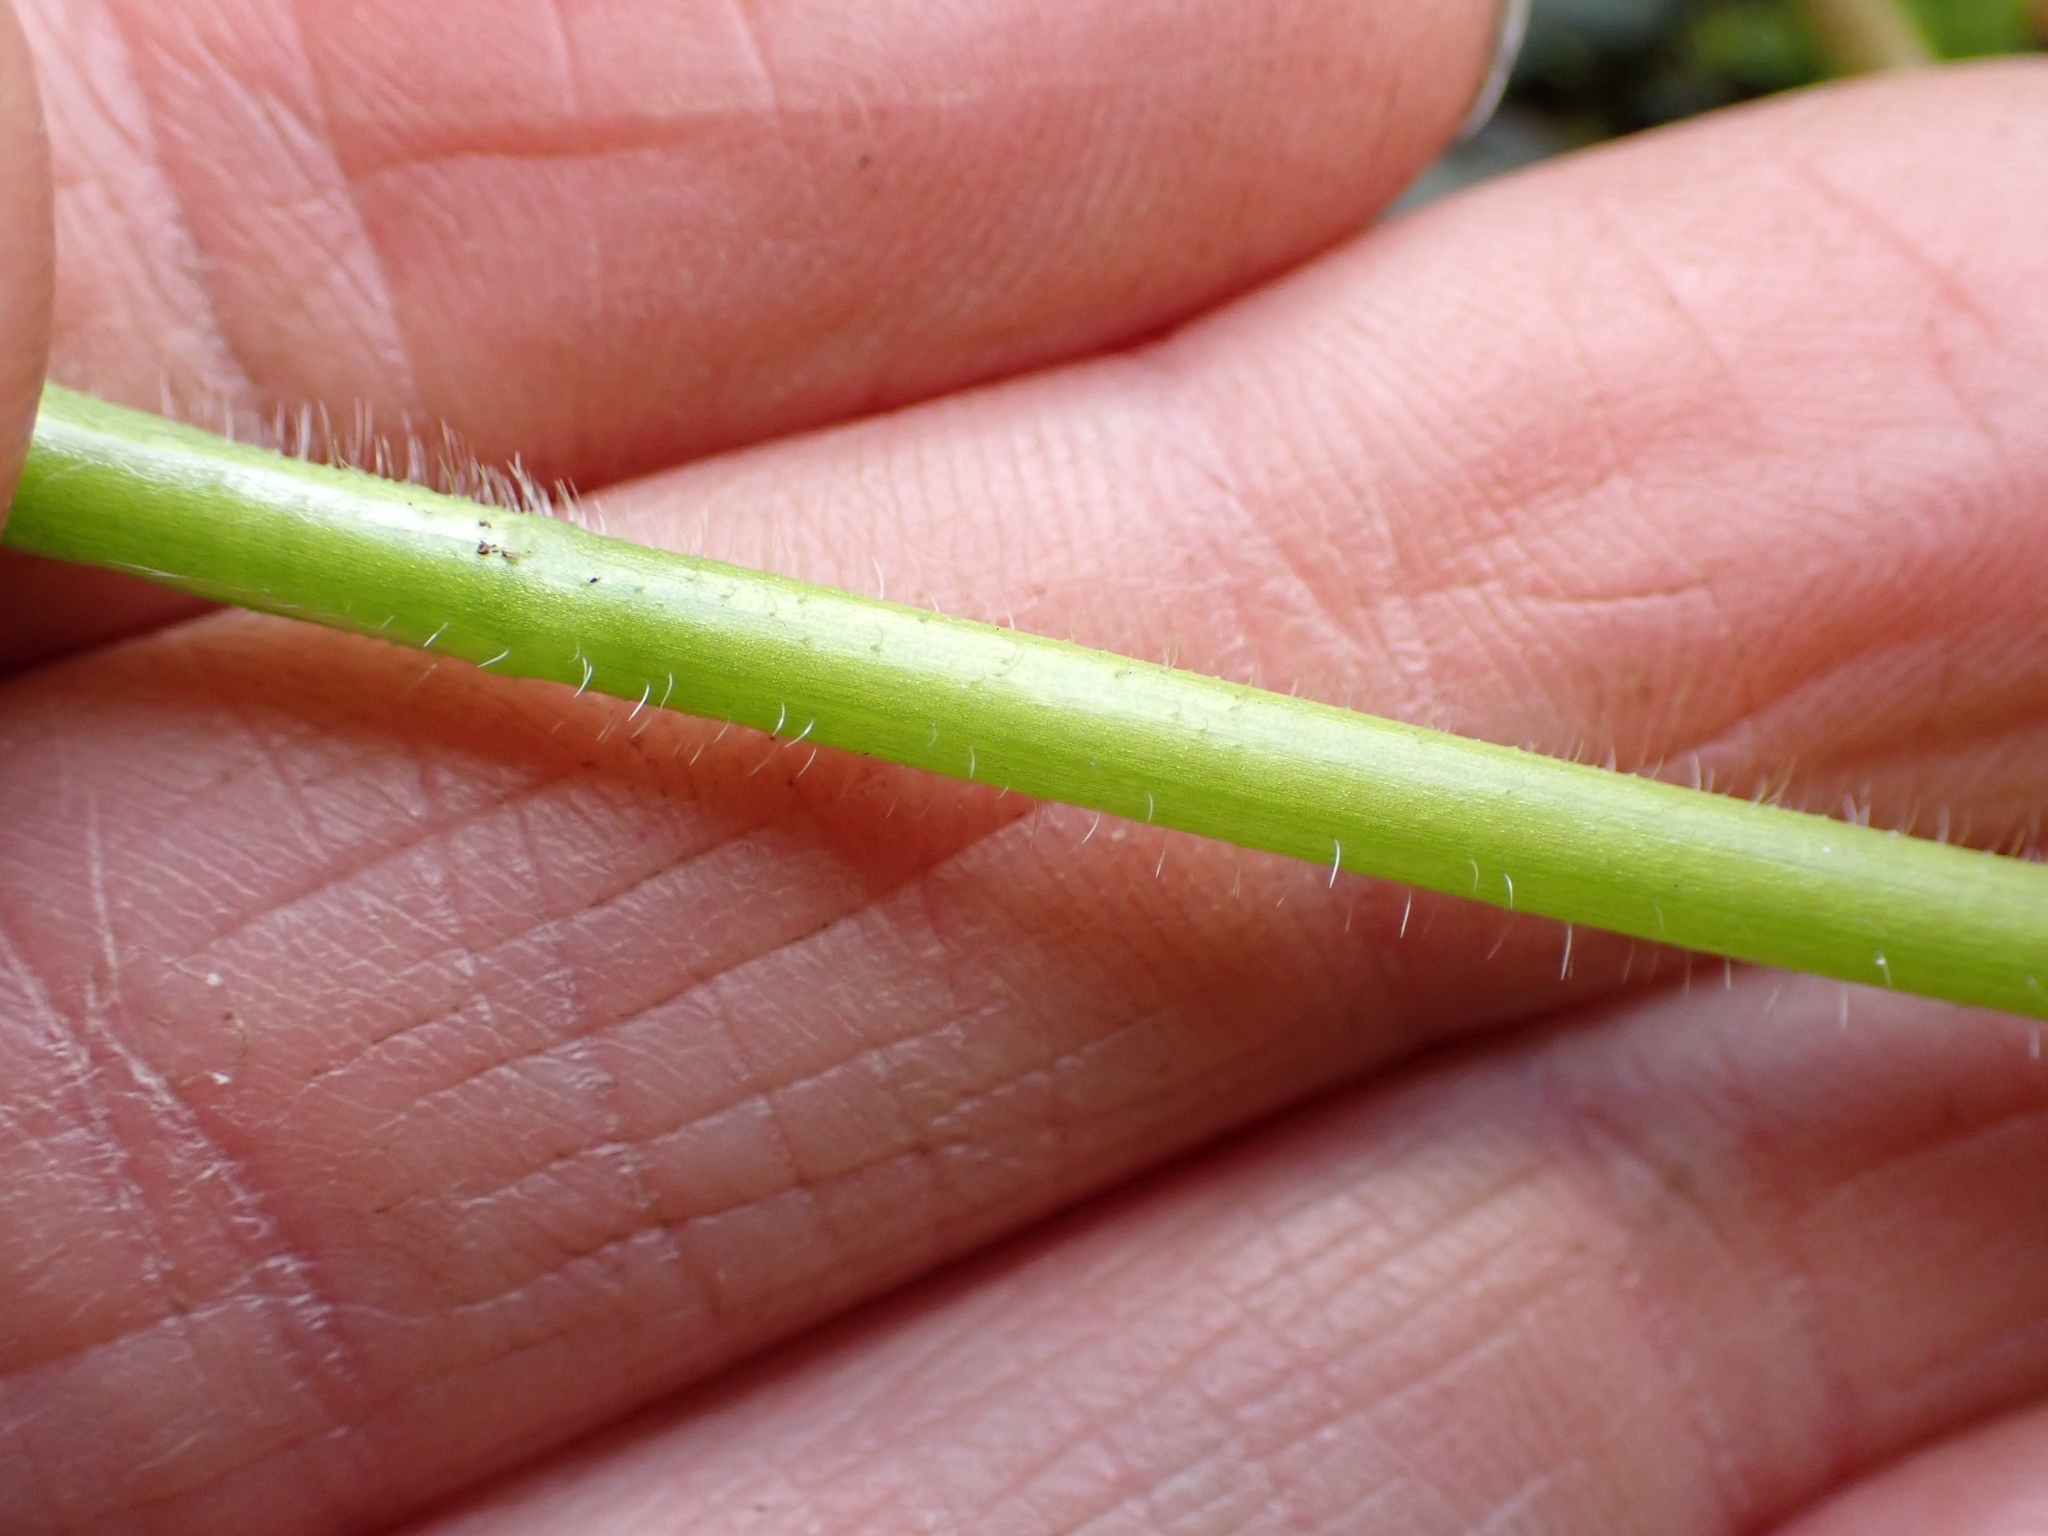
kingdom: Plantae
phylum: Tracheophyta
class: Magnoliopsida
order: Ranunculales
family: Ranunculaceae
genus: Ranunculus
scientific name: Ranunculus uncinatus
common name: Little buttercup
